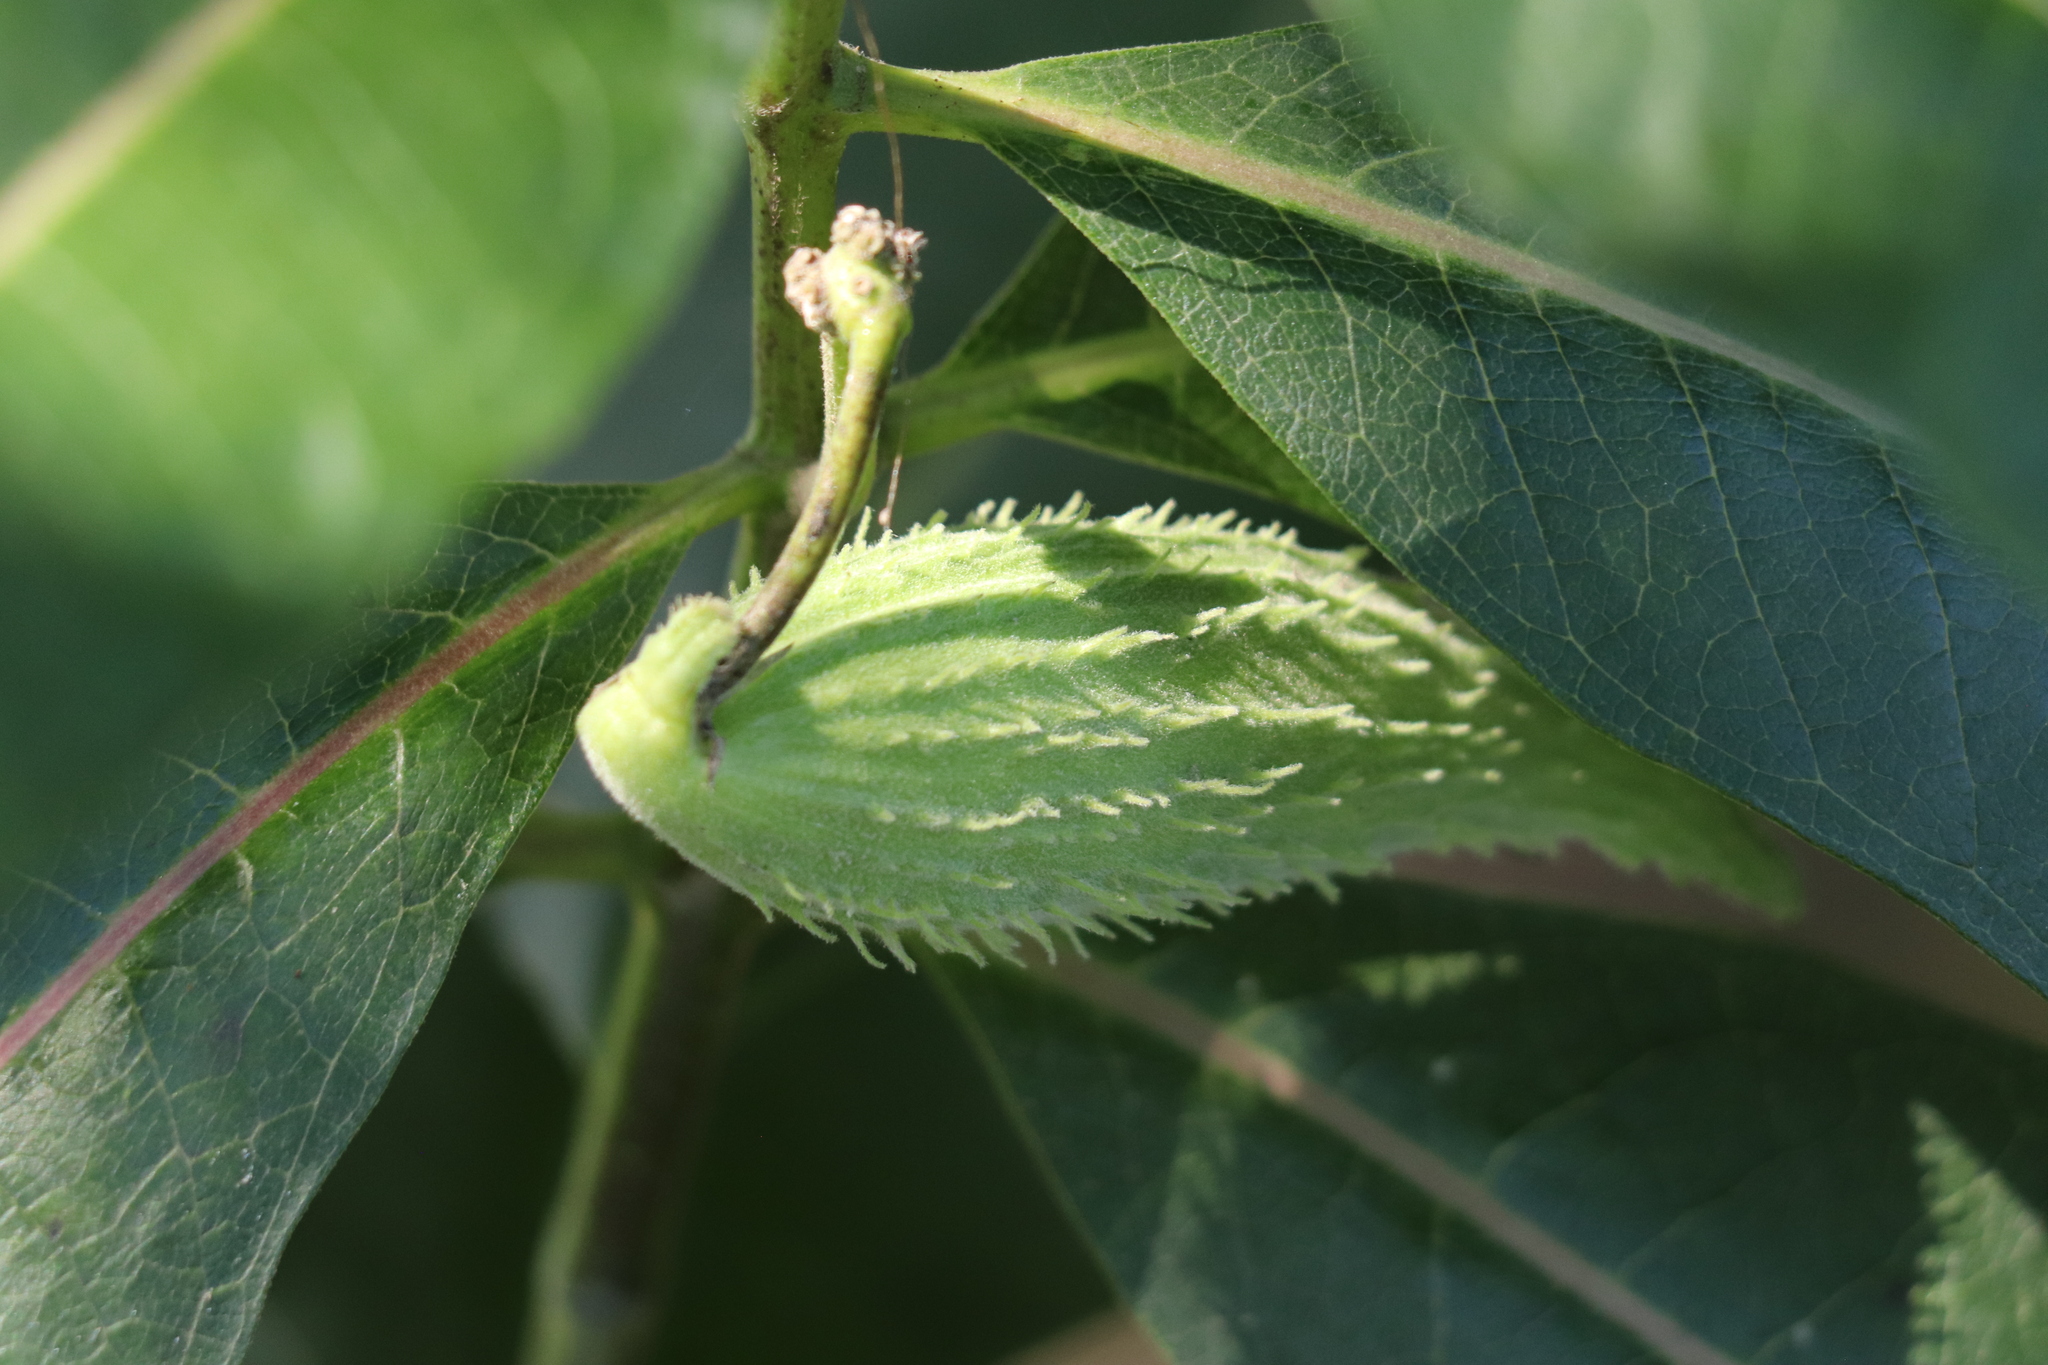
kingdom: Plantae
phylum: Tracheophyta
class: Magnoliopsida
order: Gentianales
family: Apocynaceae
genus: Asclepias
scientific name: Asclepias syriaca
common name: Common milkweed
